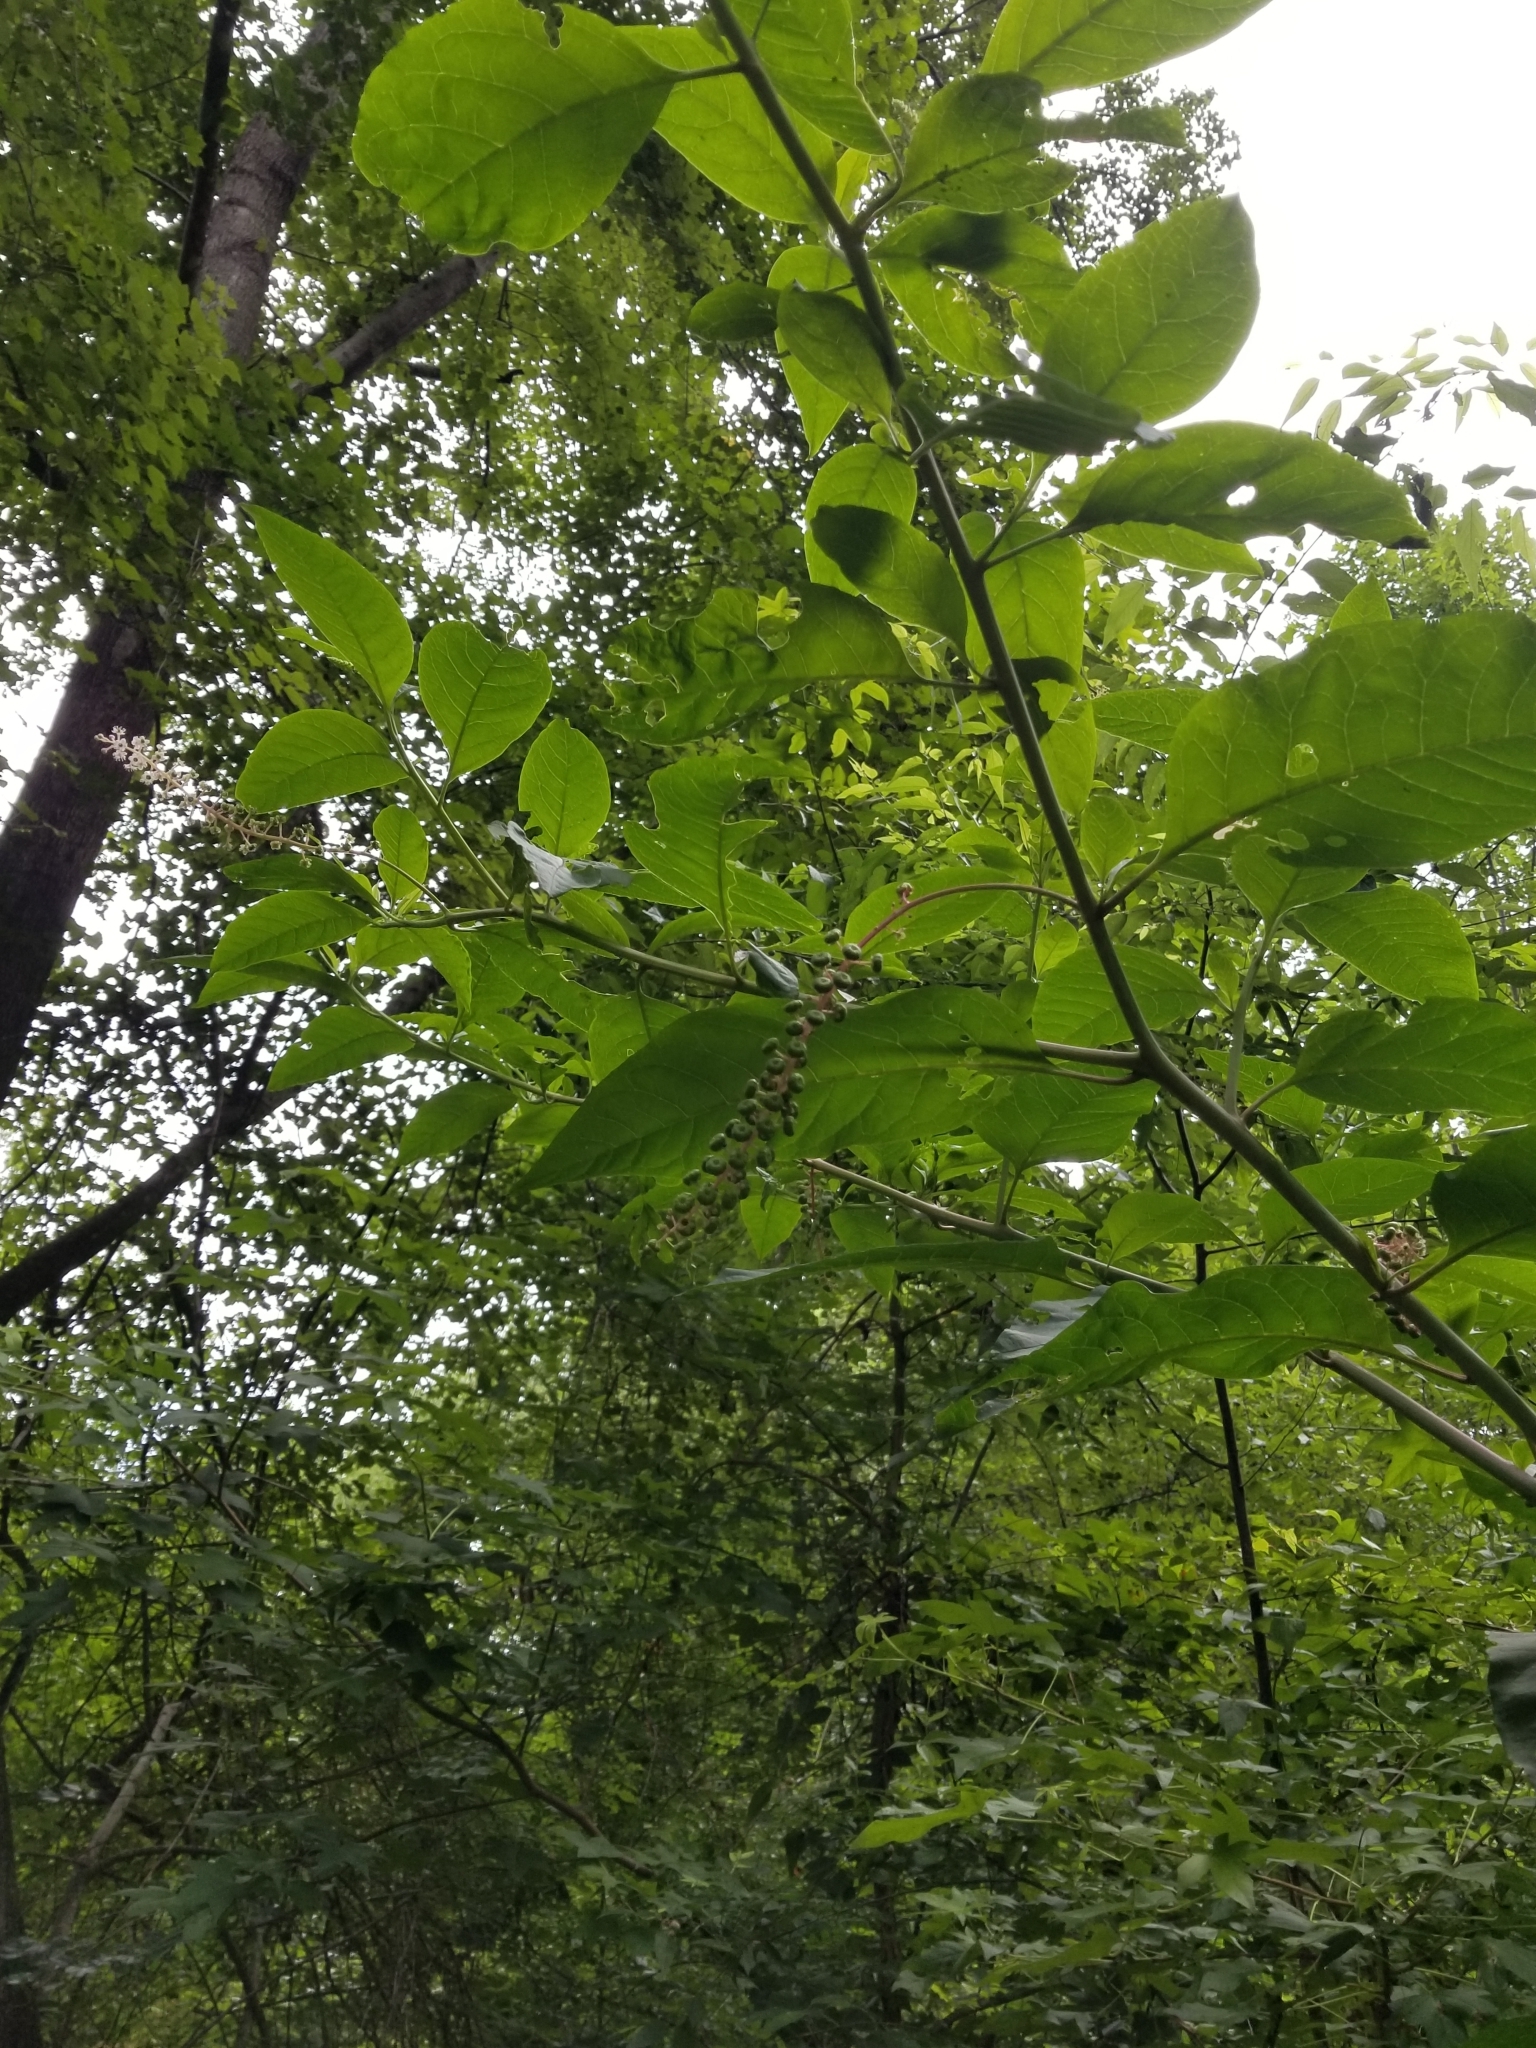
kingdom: Plantae
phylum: Tracheophyta
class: Magnoliopsida
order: Caryophyllales
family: Phytolaccaceae
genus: Phytolacca
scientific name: Phytolacca americana
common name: American pokeweed
